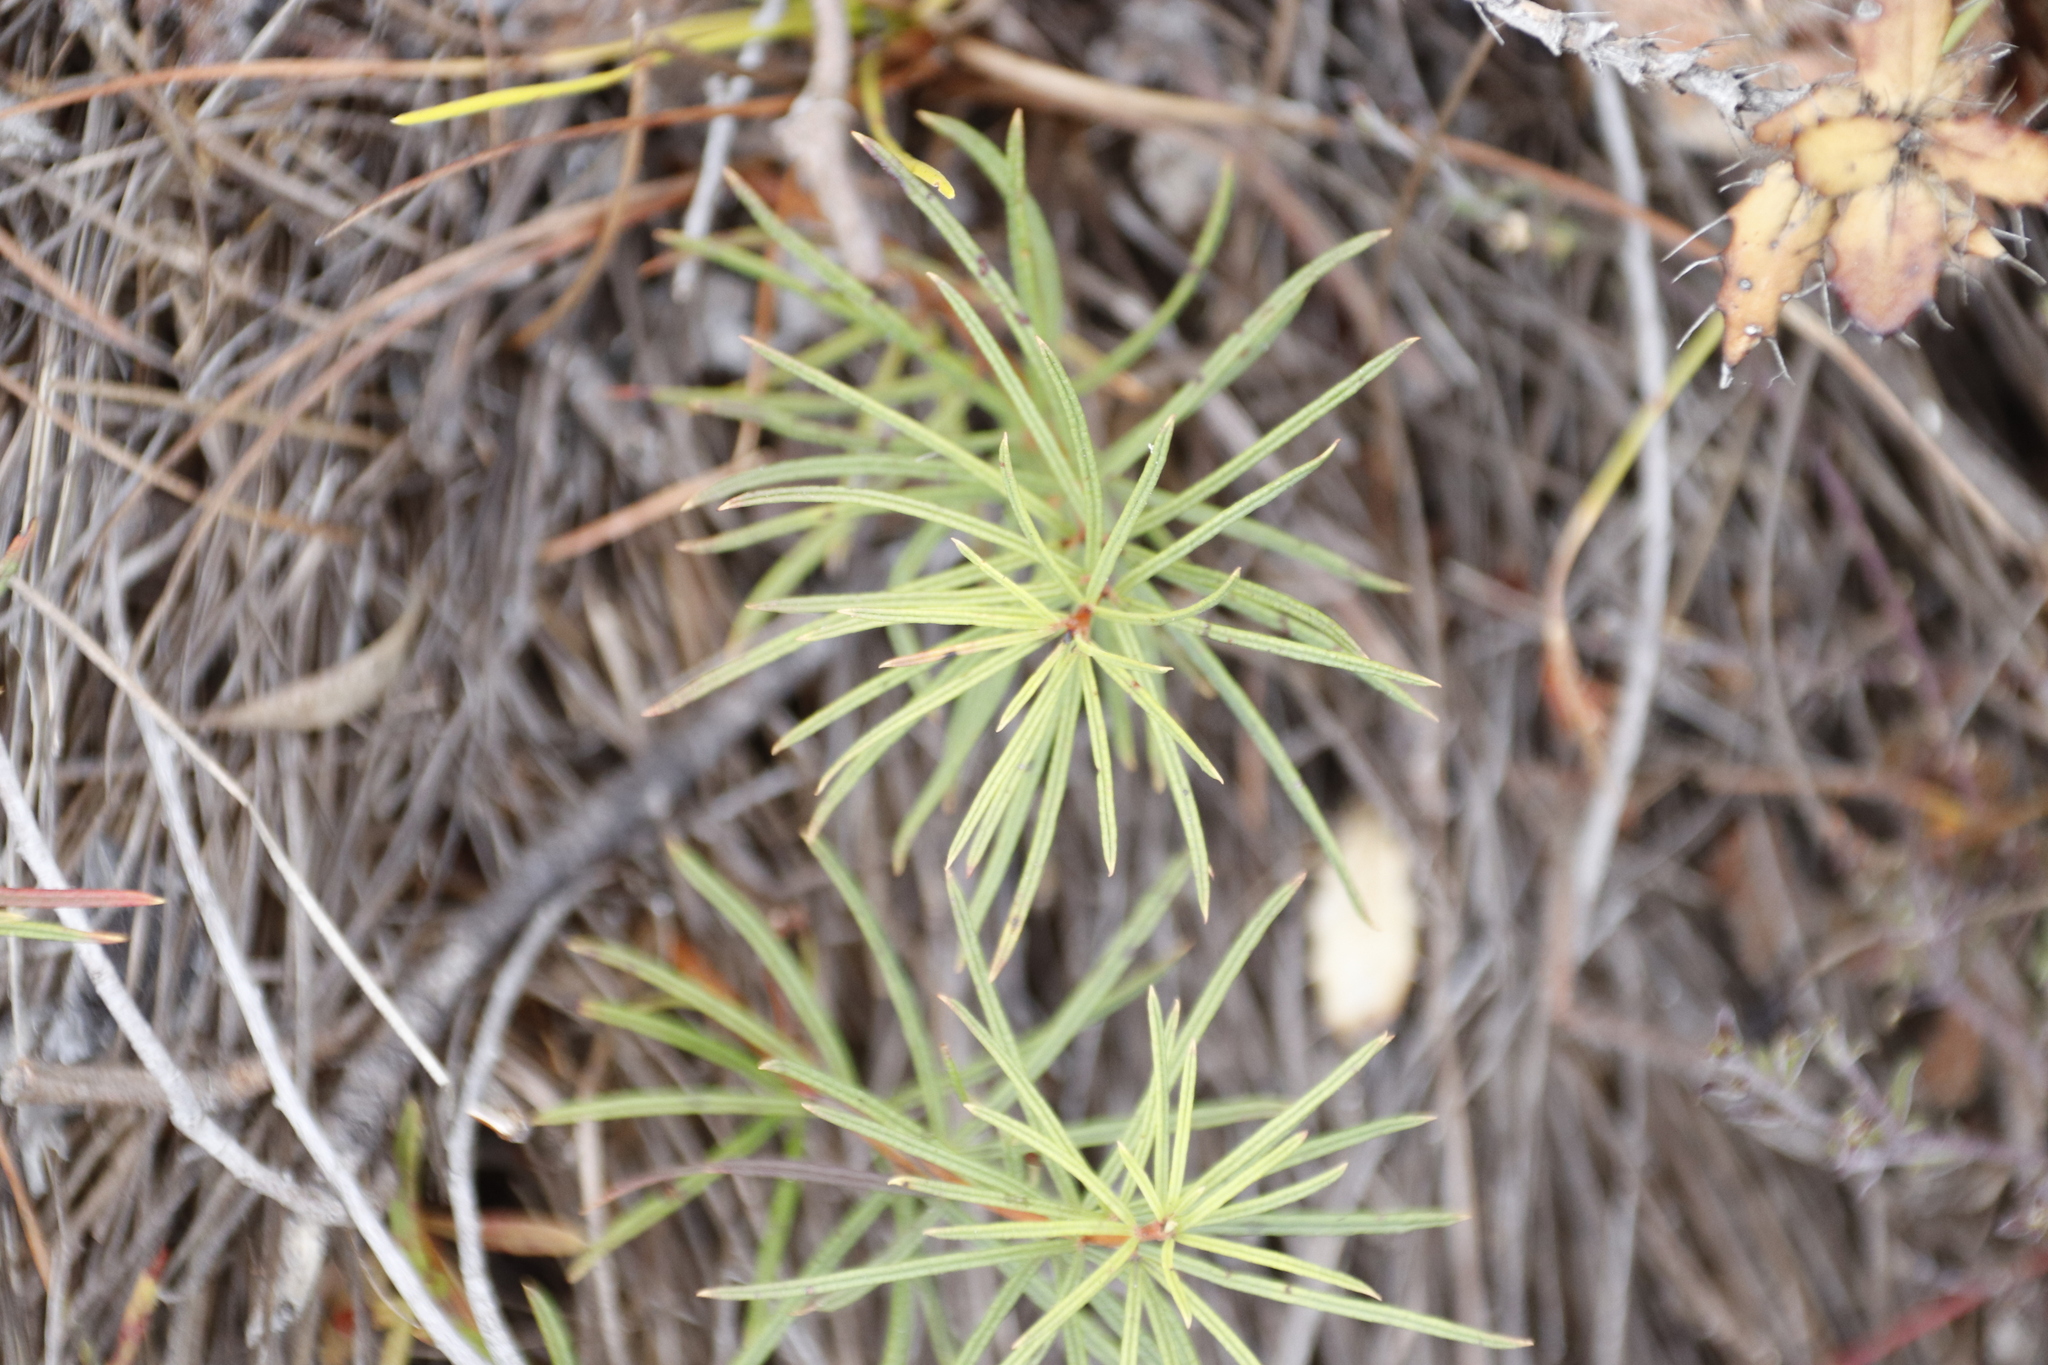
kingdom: Plantae
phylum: Tracheophyta
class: Magnoliopsida
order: Sapindales
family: Anacardiaceae
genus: Searsia
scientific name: Searsia rosmarinifolia
